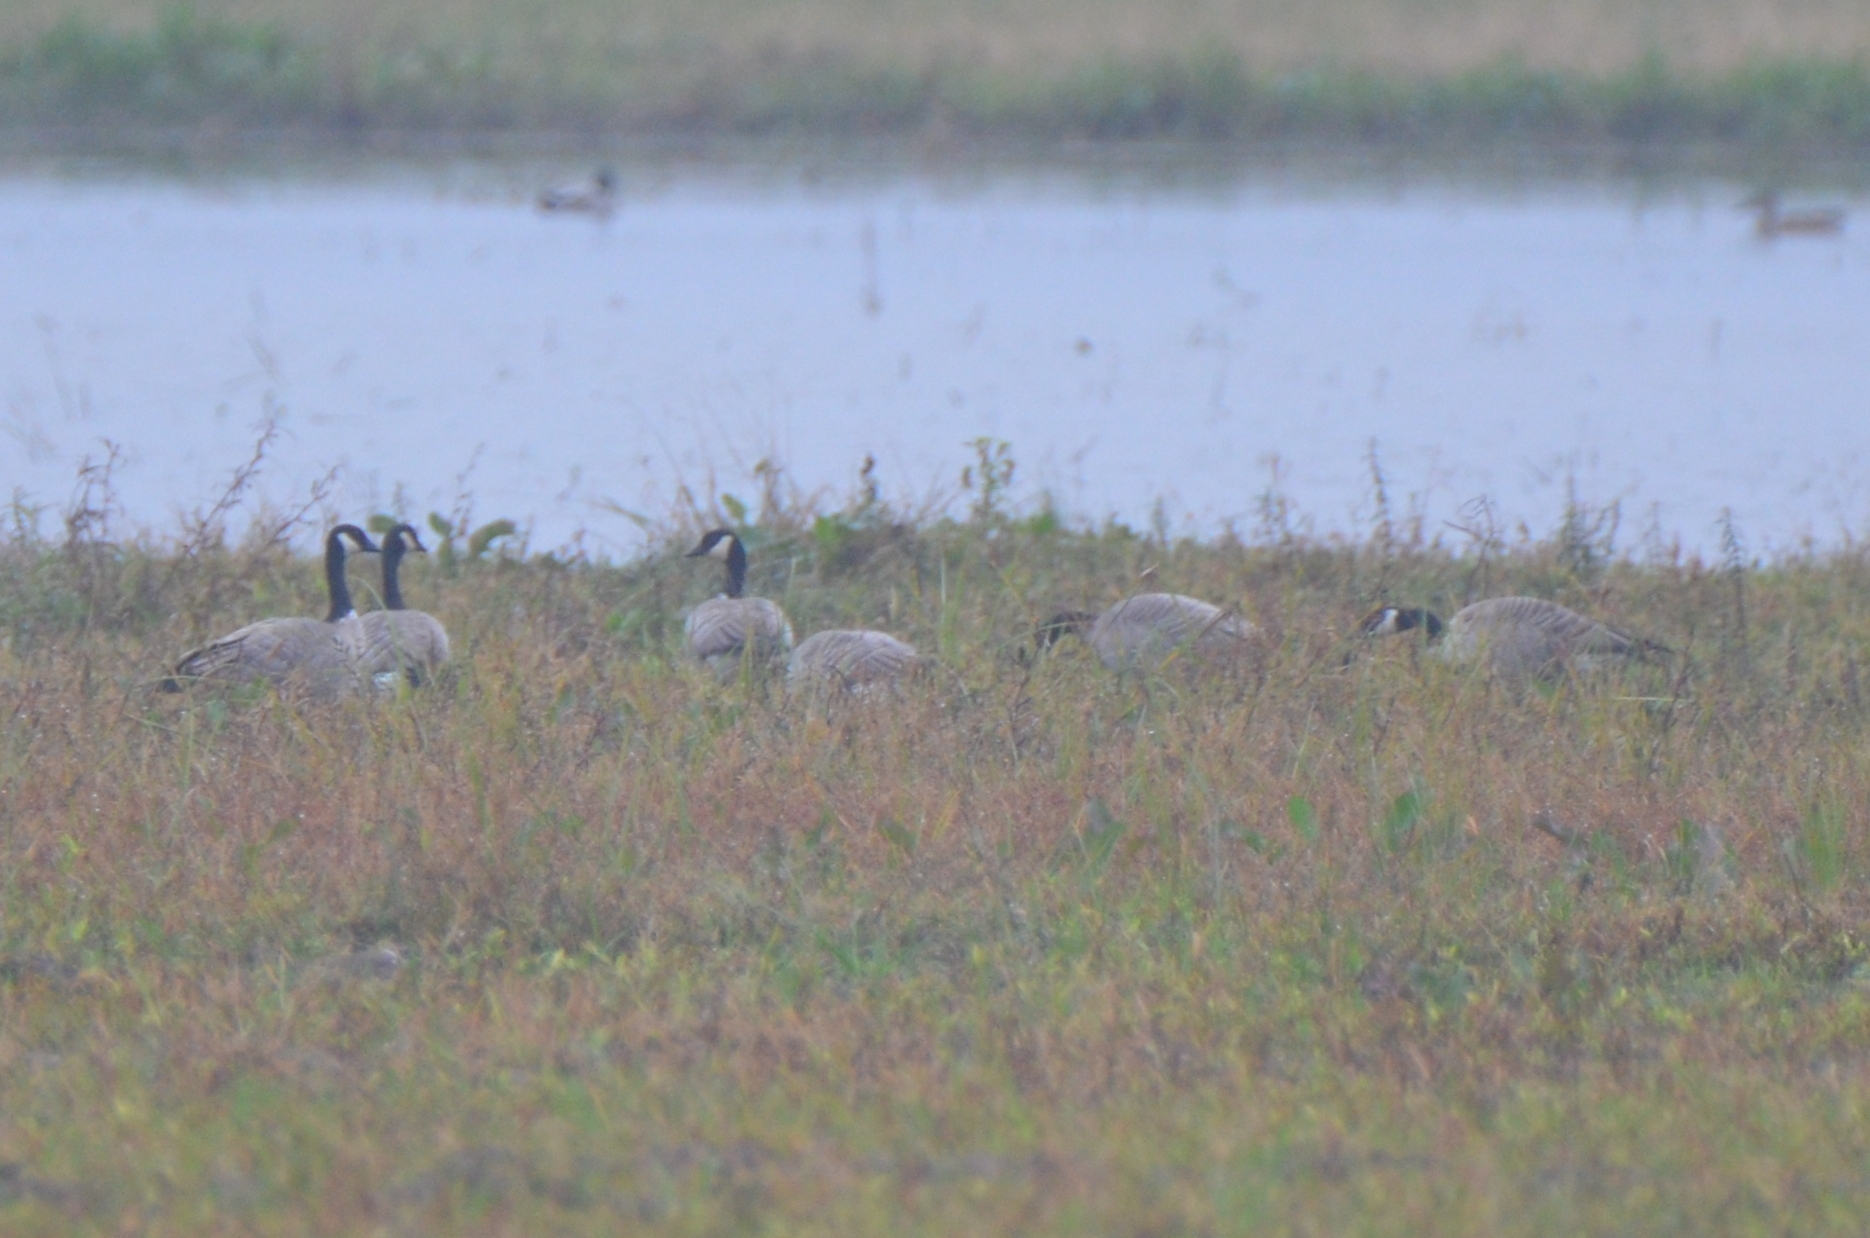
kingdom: Animalia
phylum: Chordata
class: Aves
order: Anseriformes
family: Anatidae
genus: Branta
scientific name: Branta hutchinsii
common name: Cackling goose
